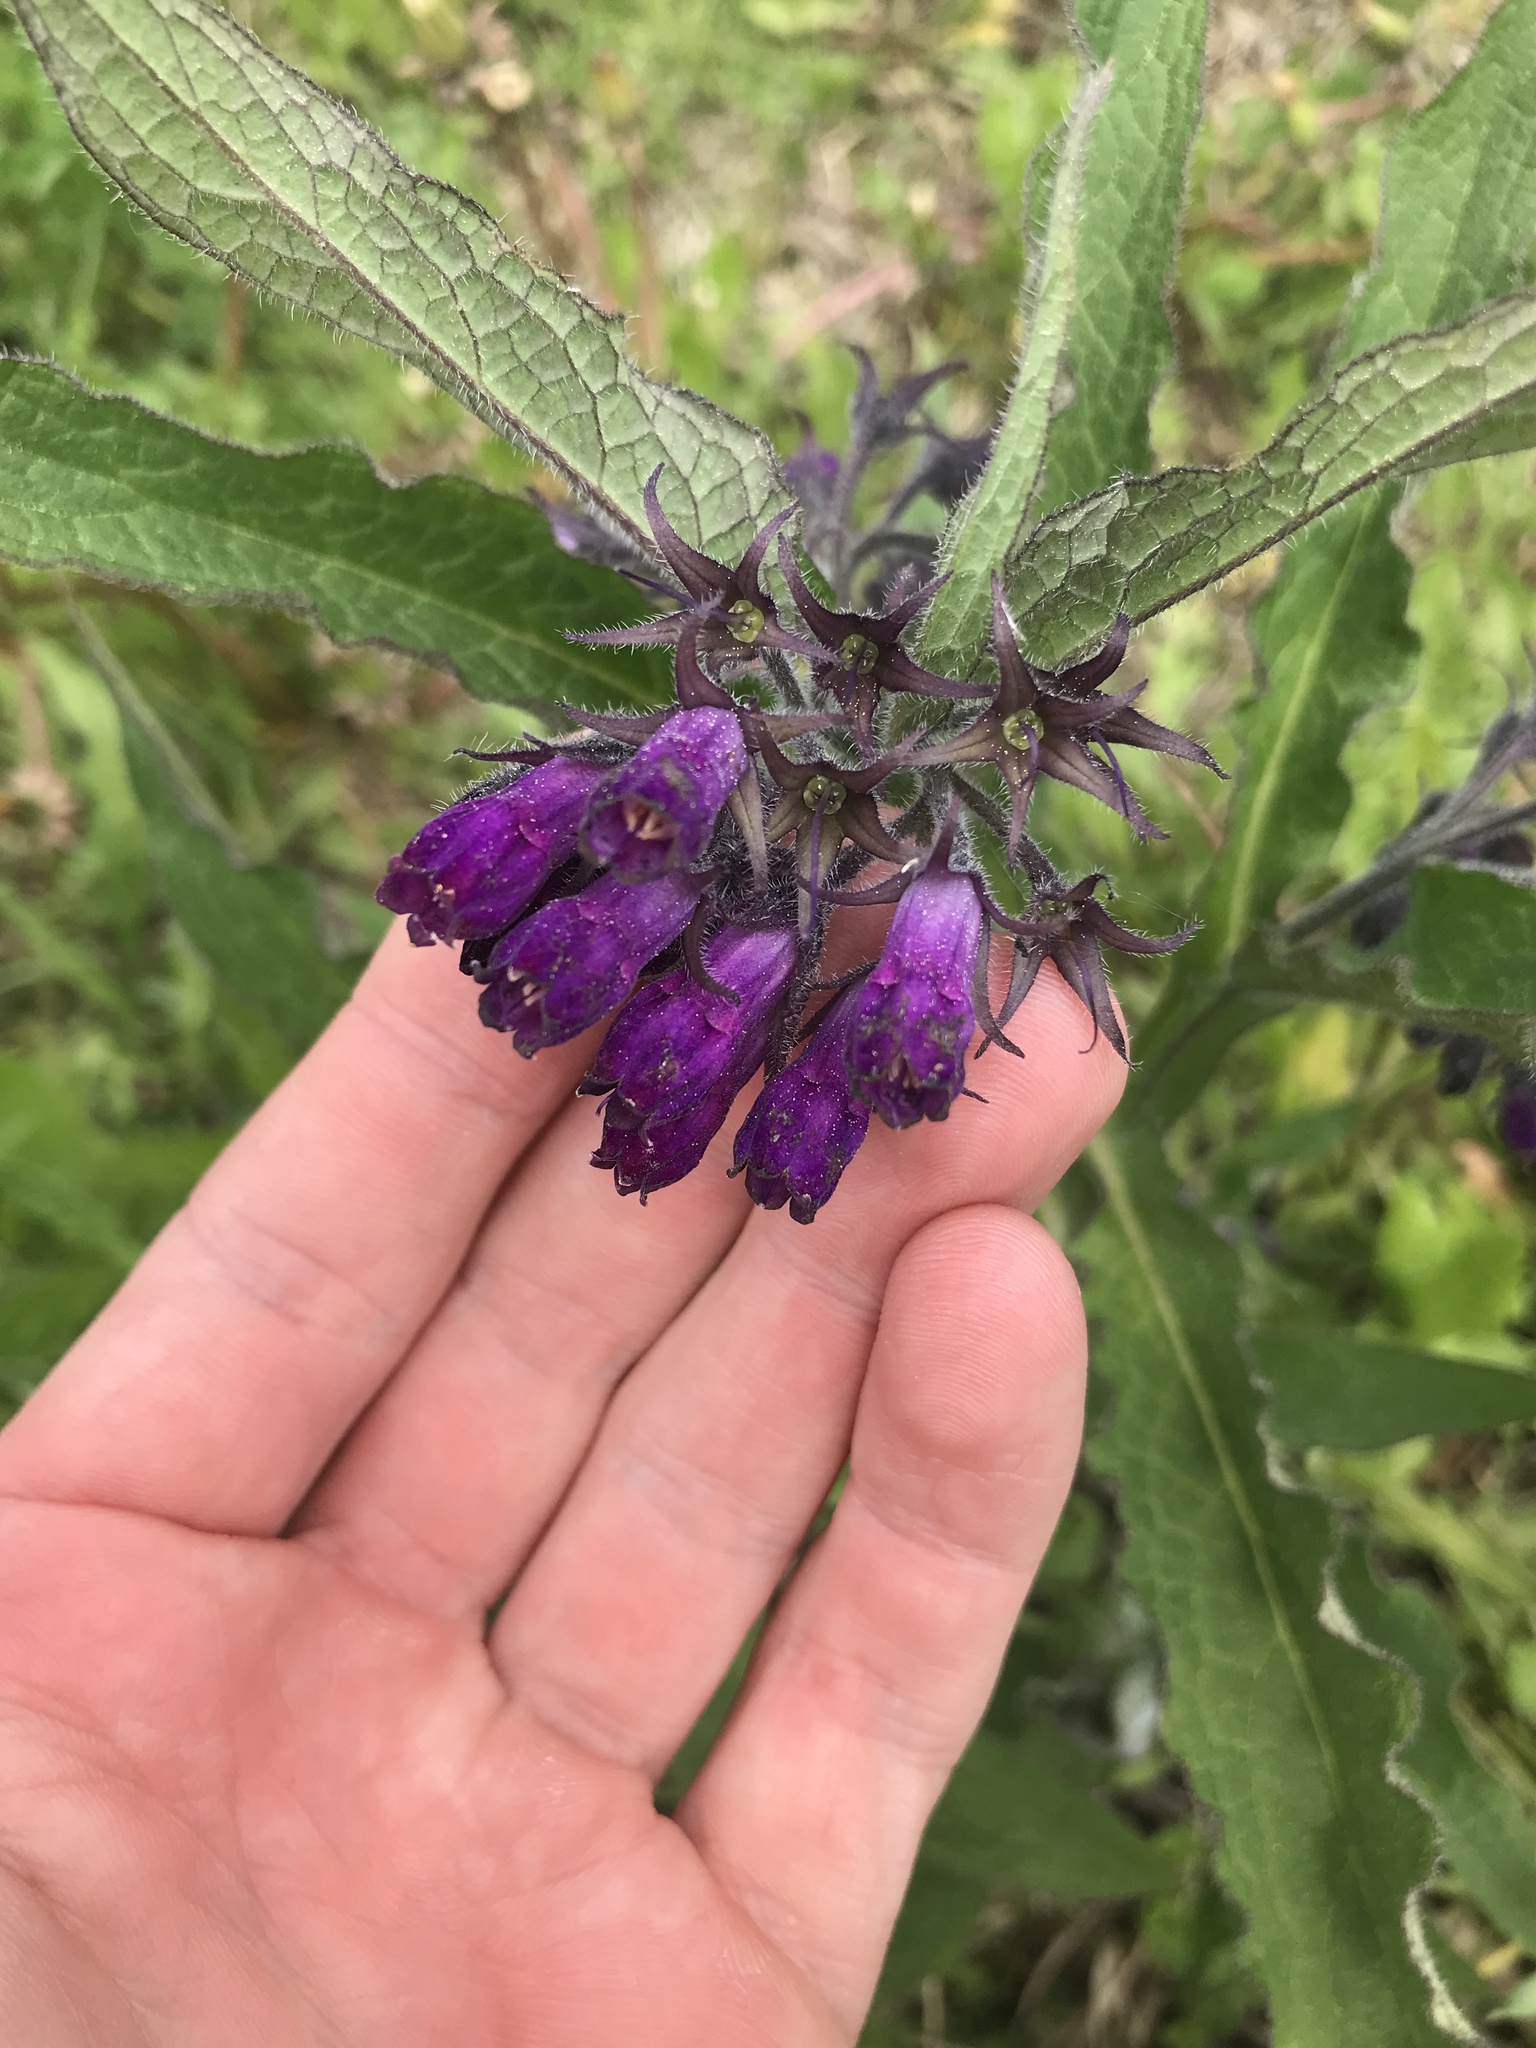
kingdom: Plantae
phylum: Tracheophyta
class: Magnoliopsida
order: Boraginales
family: Boraginaceae
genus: Symphytum
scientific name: Symphytum officinale
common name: Common comfrey
